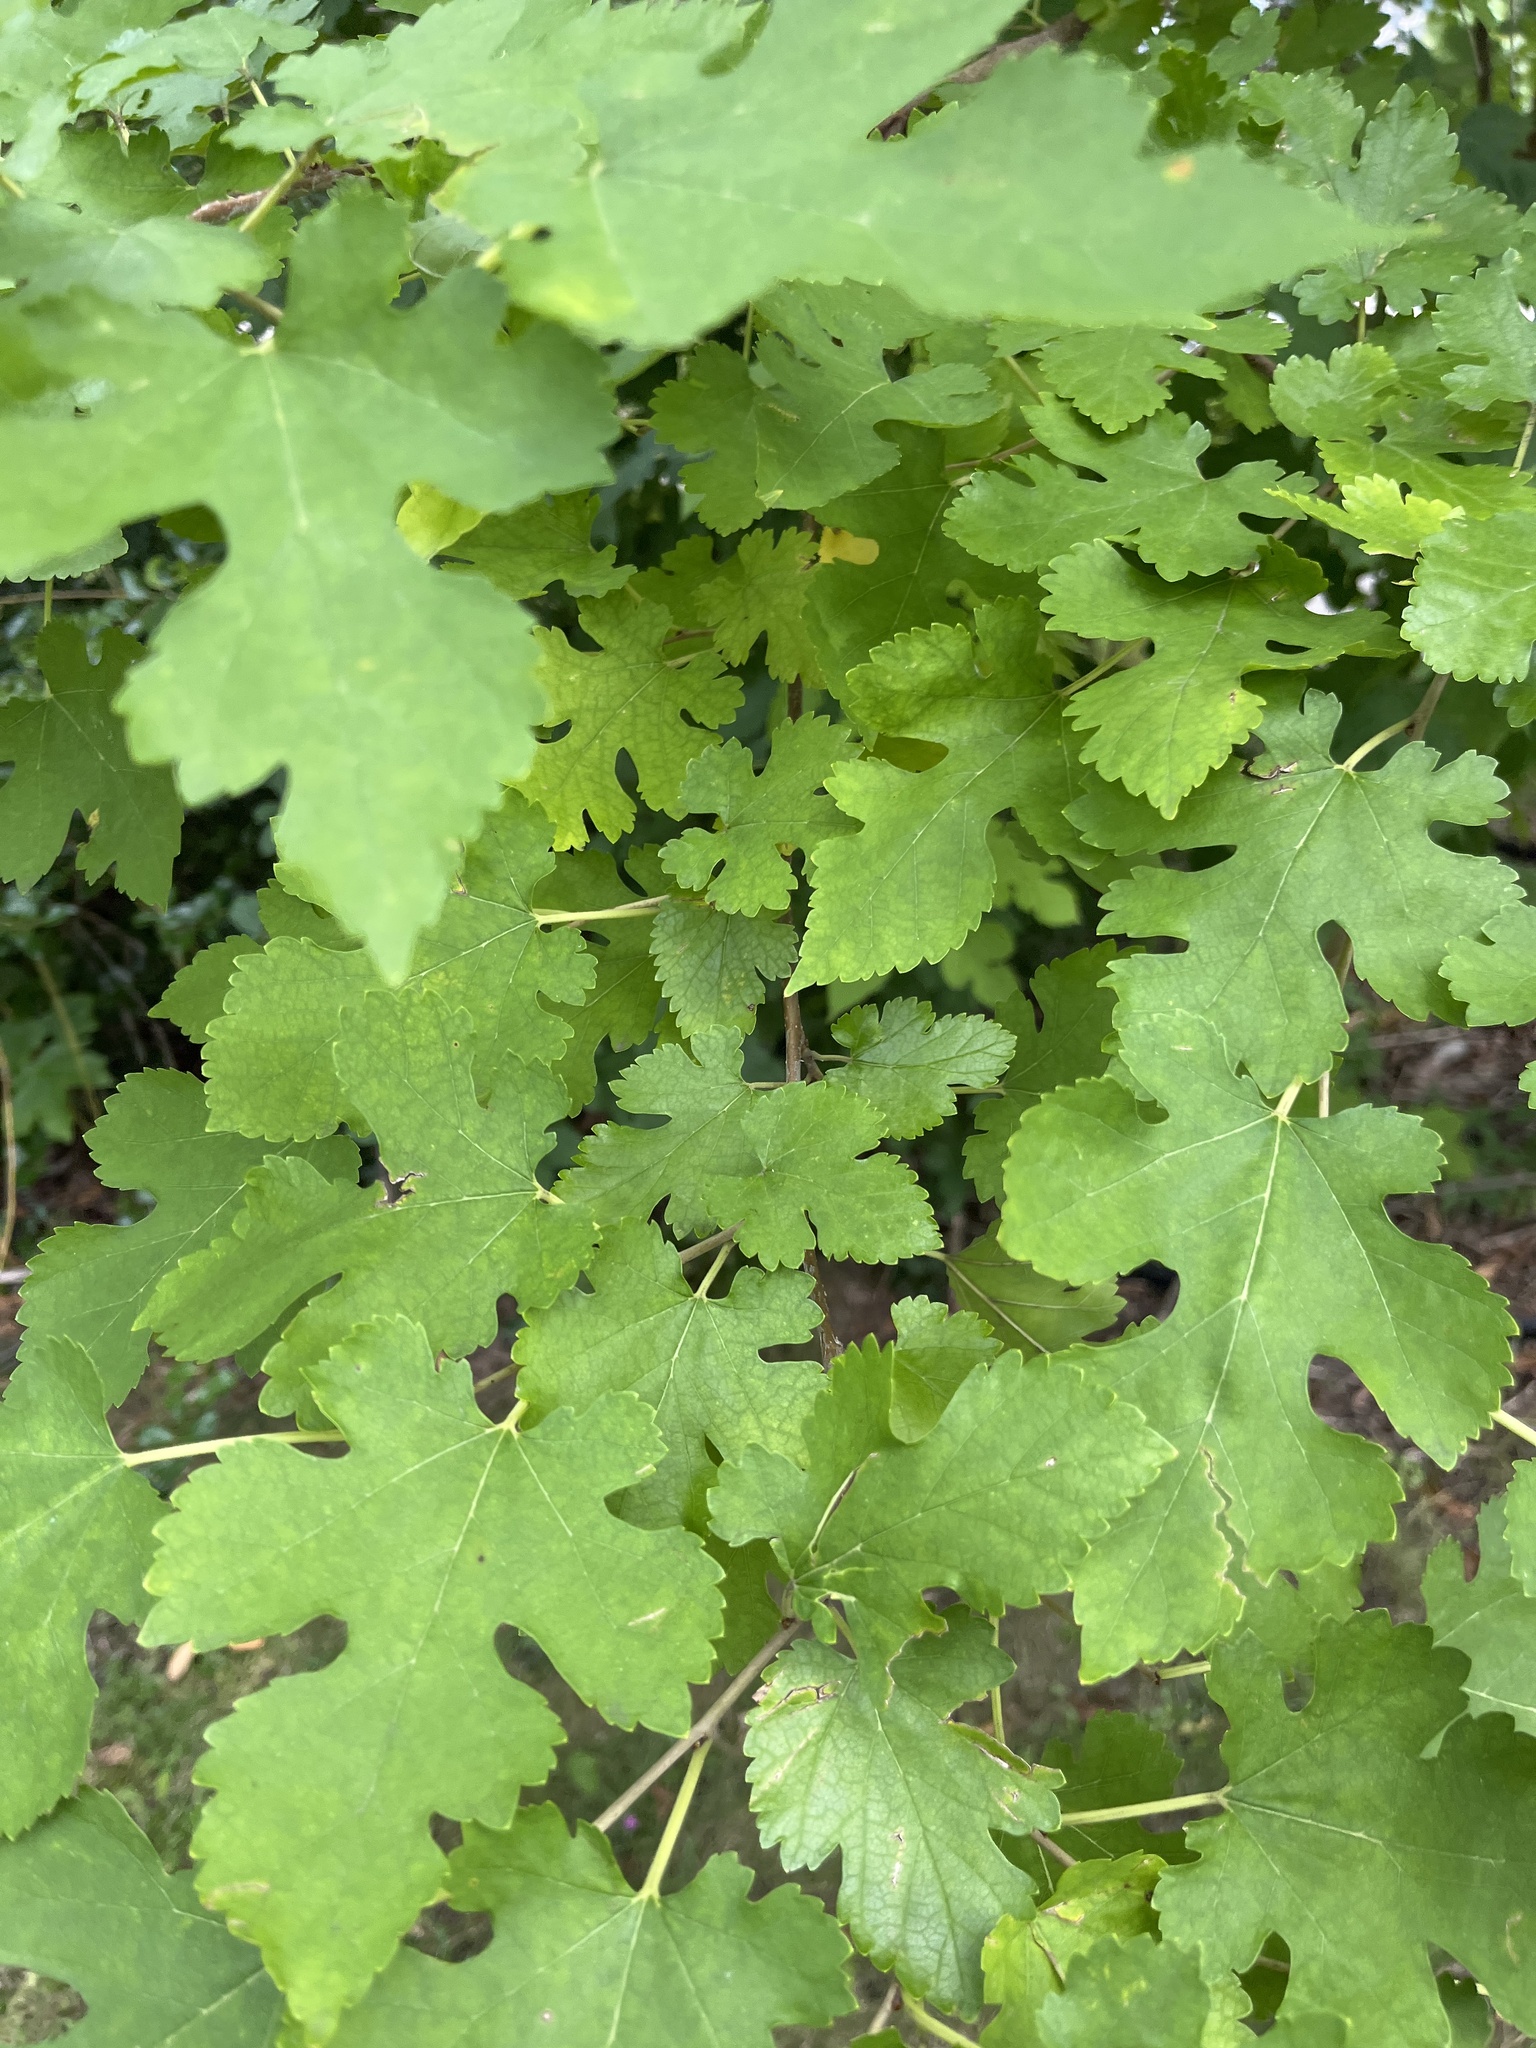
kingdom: Plantae
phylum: Tracheophyta
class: Magnoliopsida
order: Rosales
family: Moraceae
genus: Morus
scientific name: Morus alba
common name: White mulberry
